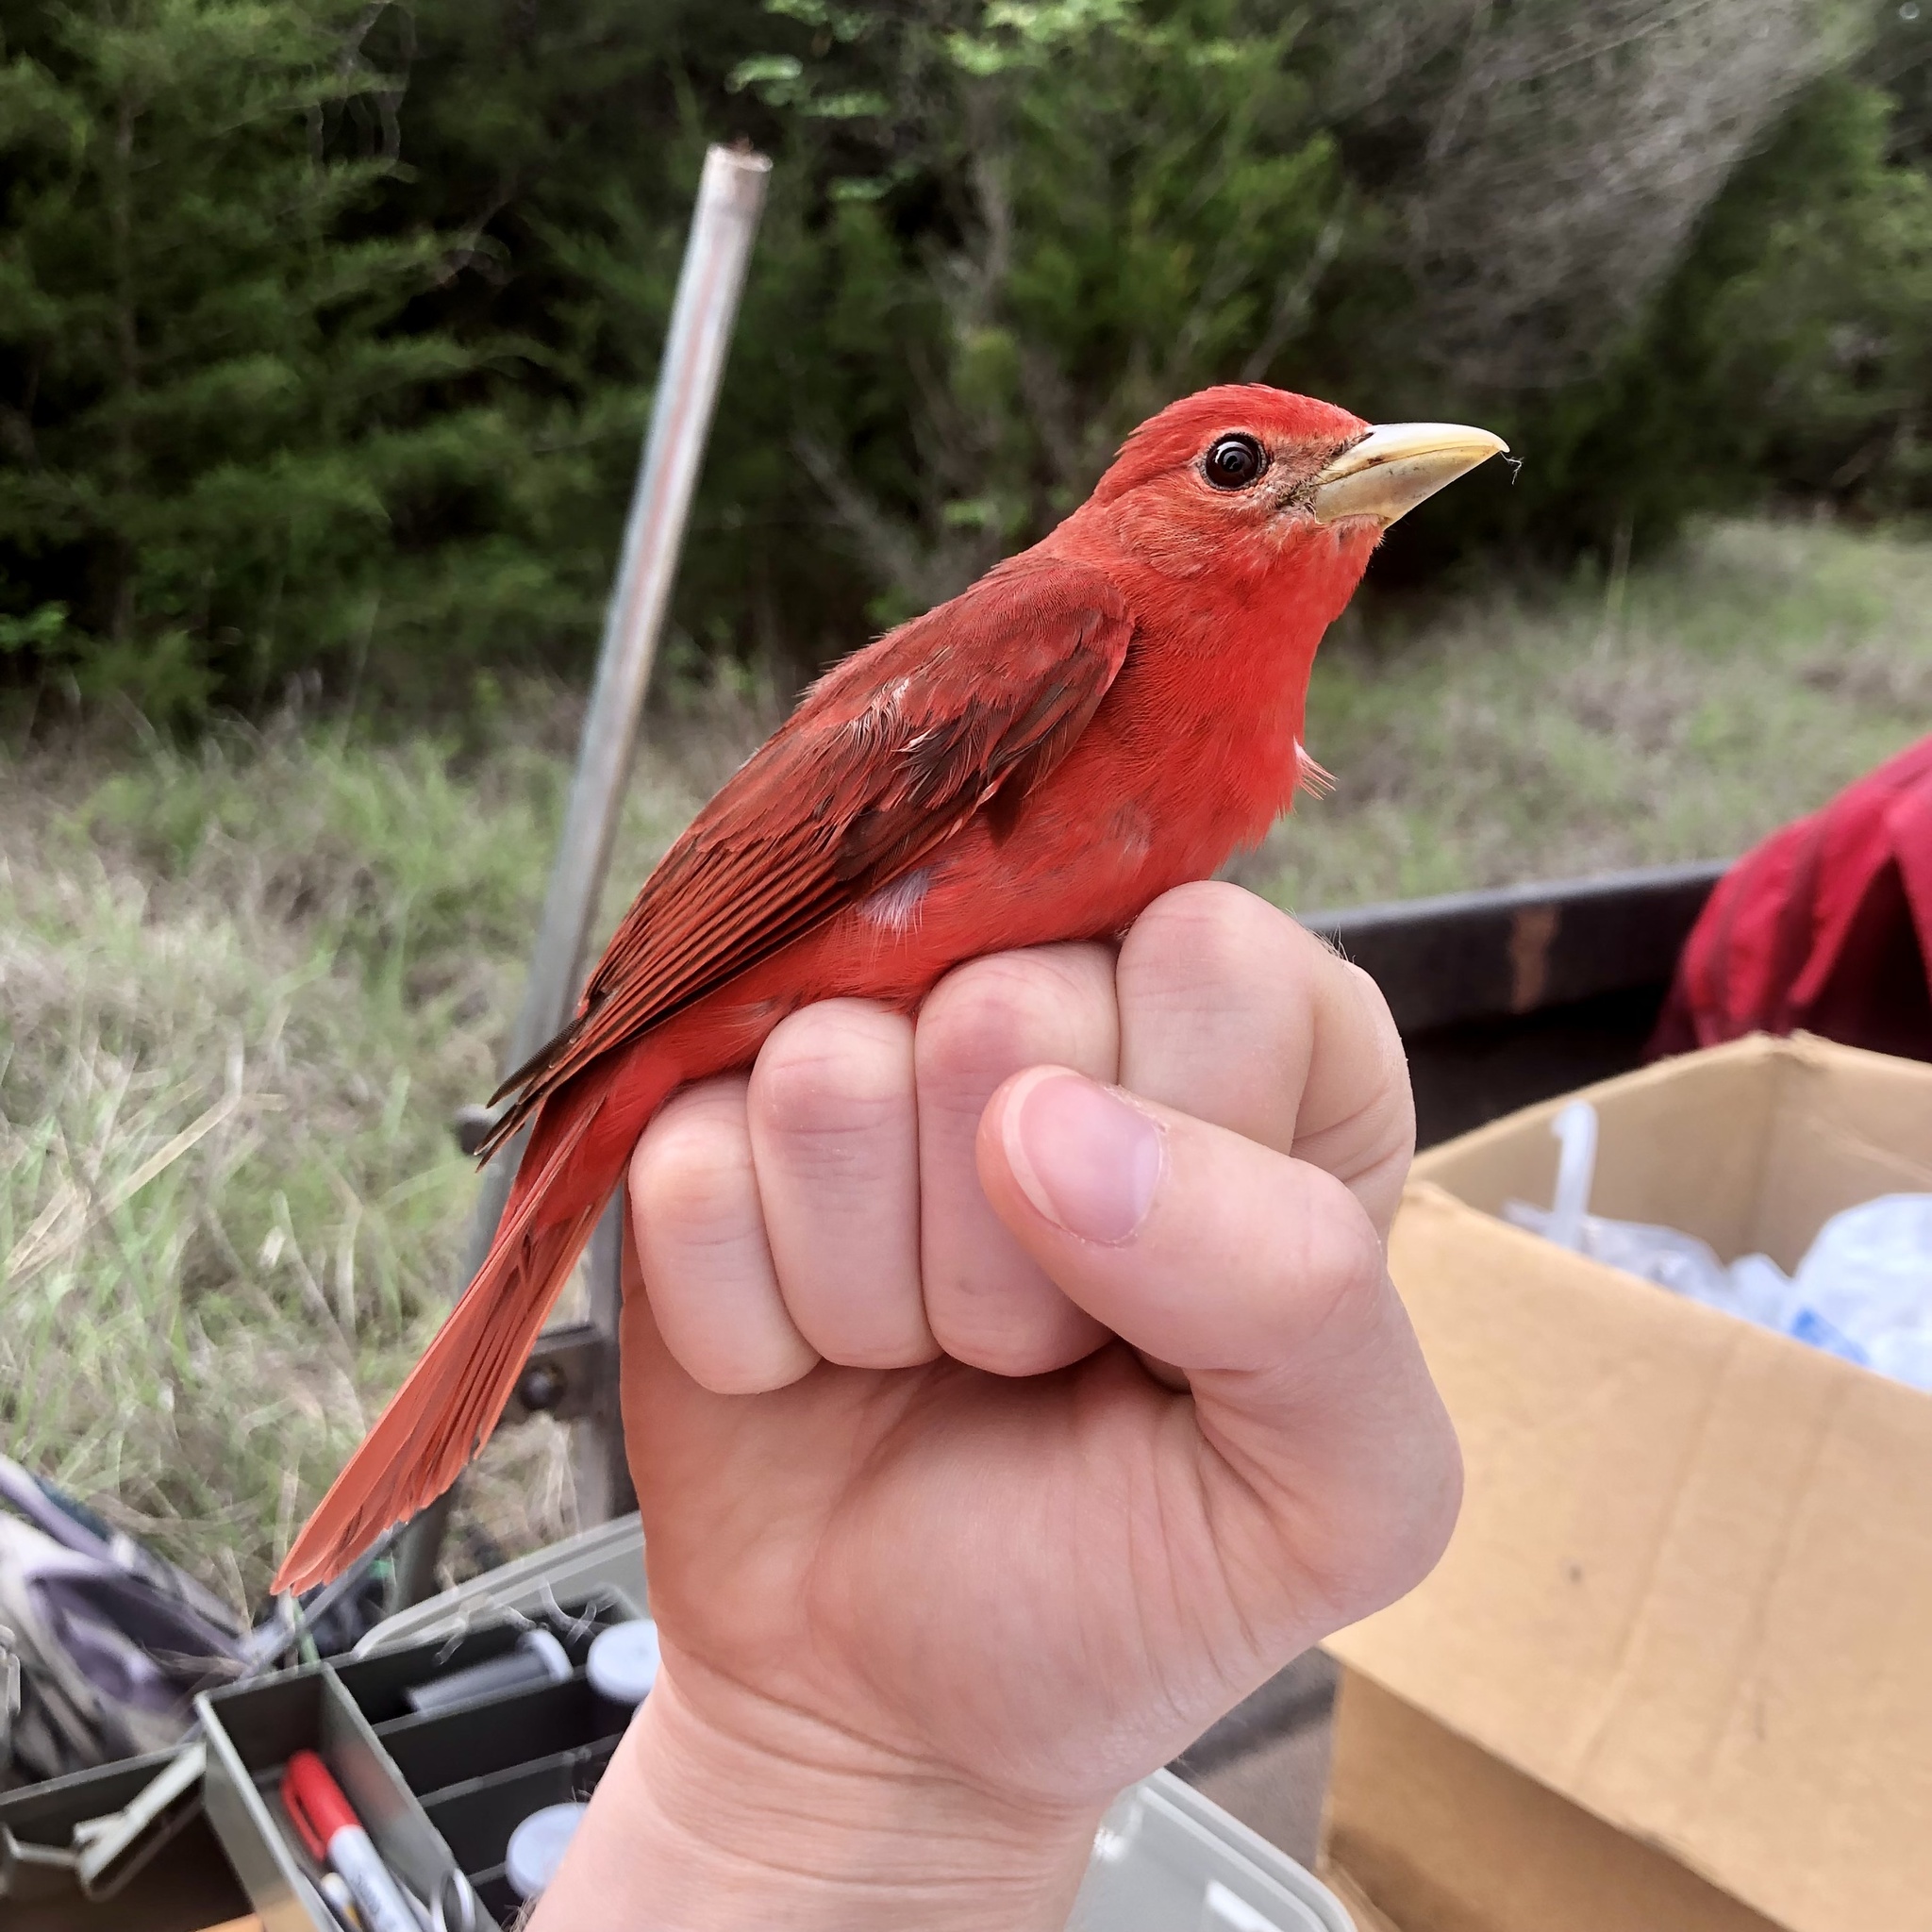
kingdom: Animalia
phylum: Chordata
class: Aves
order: Passeriformes
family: Cardinalidae
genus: Piranga
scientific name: Piranga rubra
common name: Summer tanager
